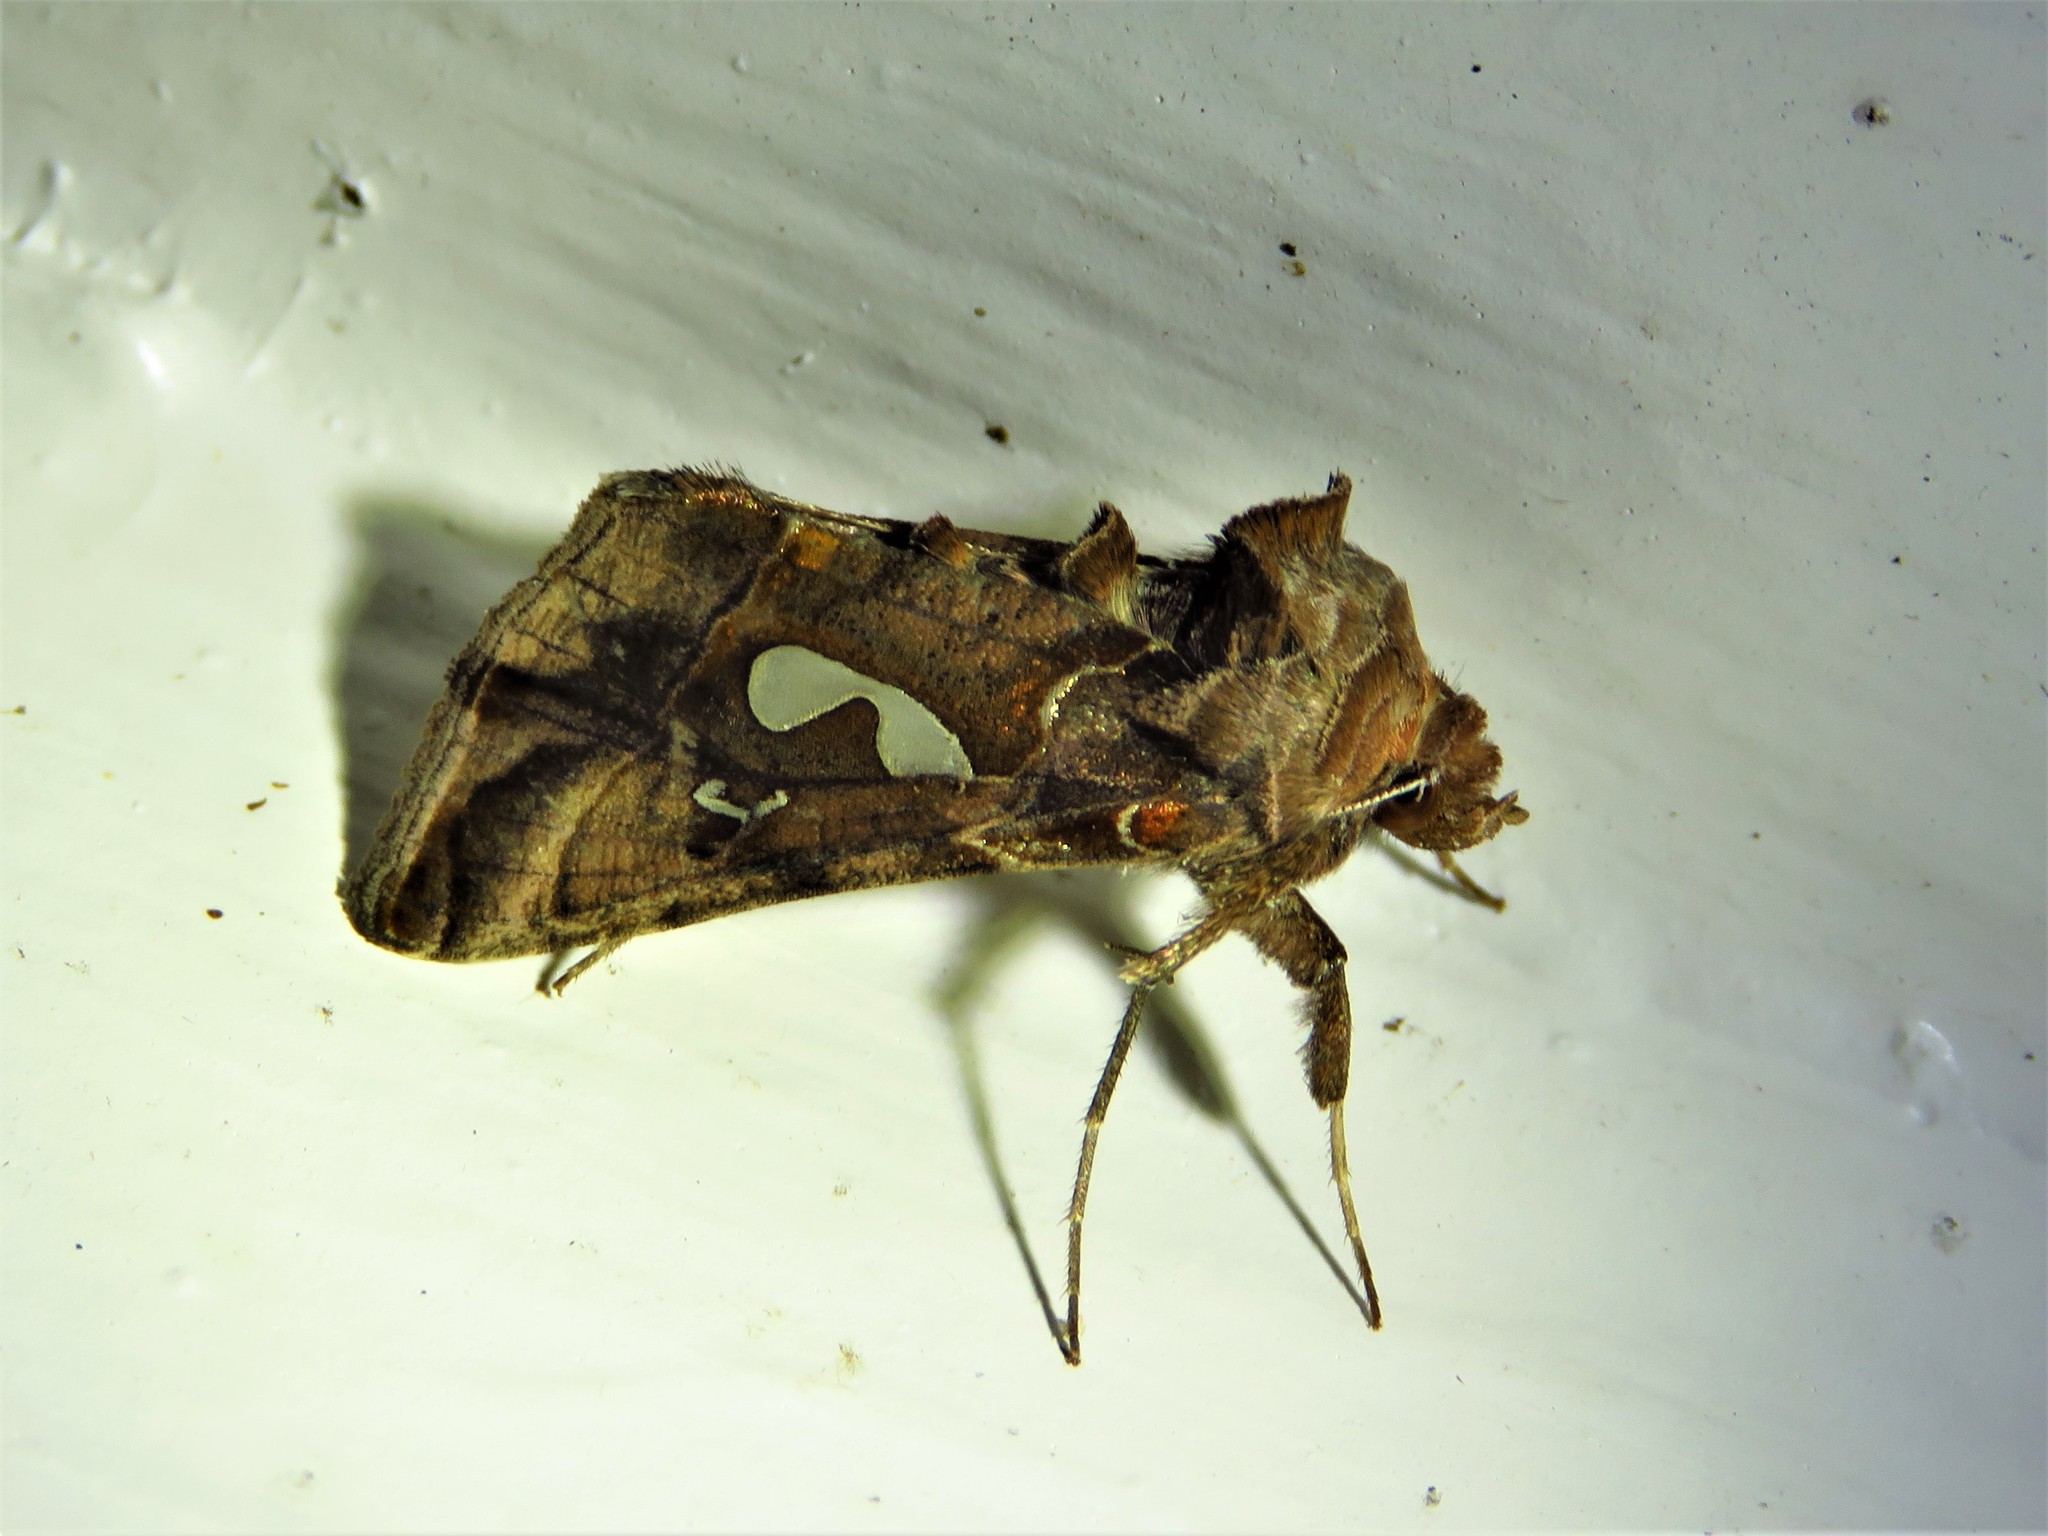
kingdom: Animalia
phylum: Arthropoda
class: Insecta
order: Lepidoptera
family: Noctuidae
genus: Megalographa
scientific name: Megalographa biloba
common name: Cutworm
